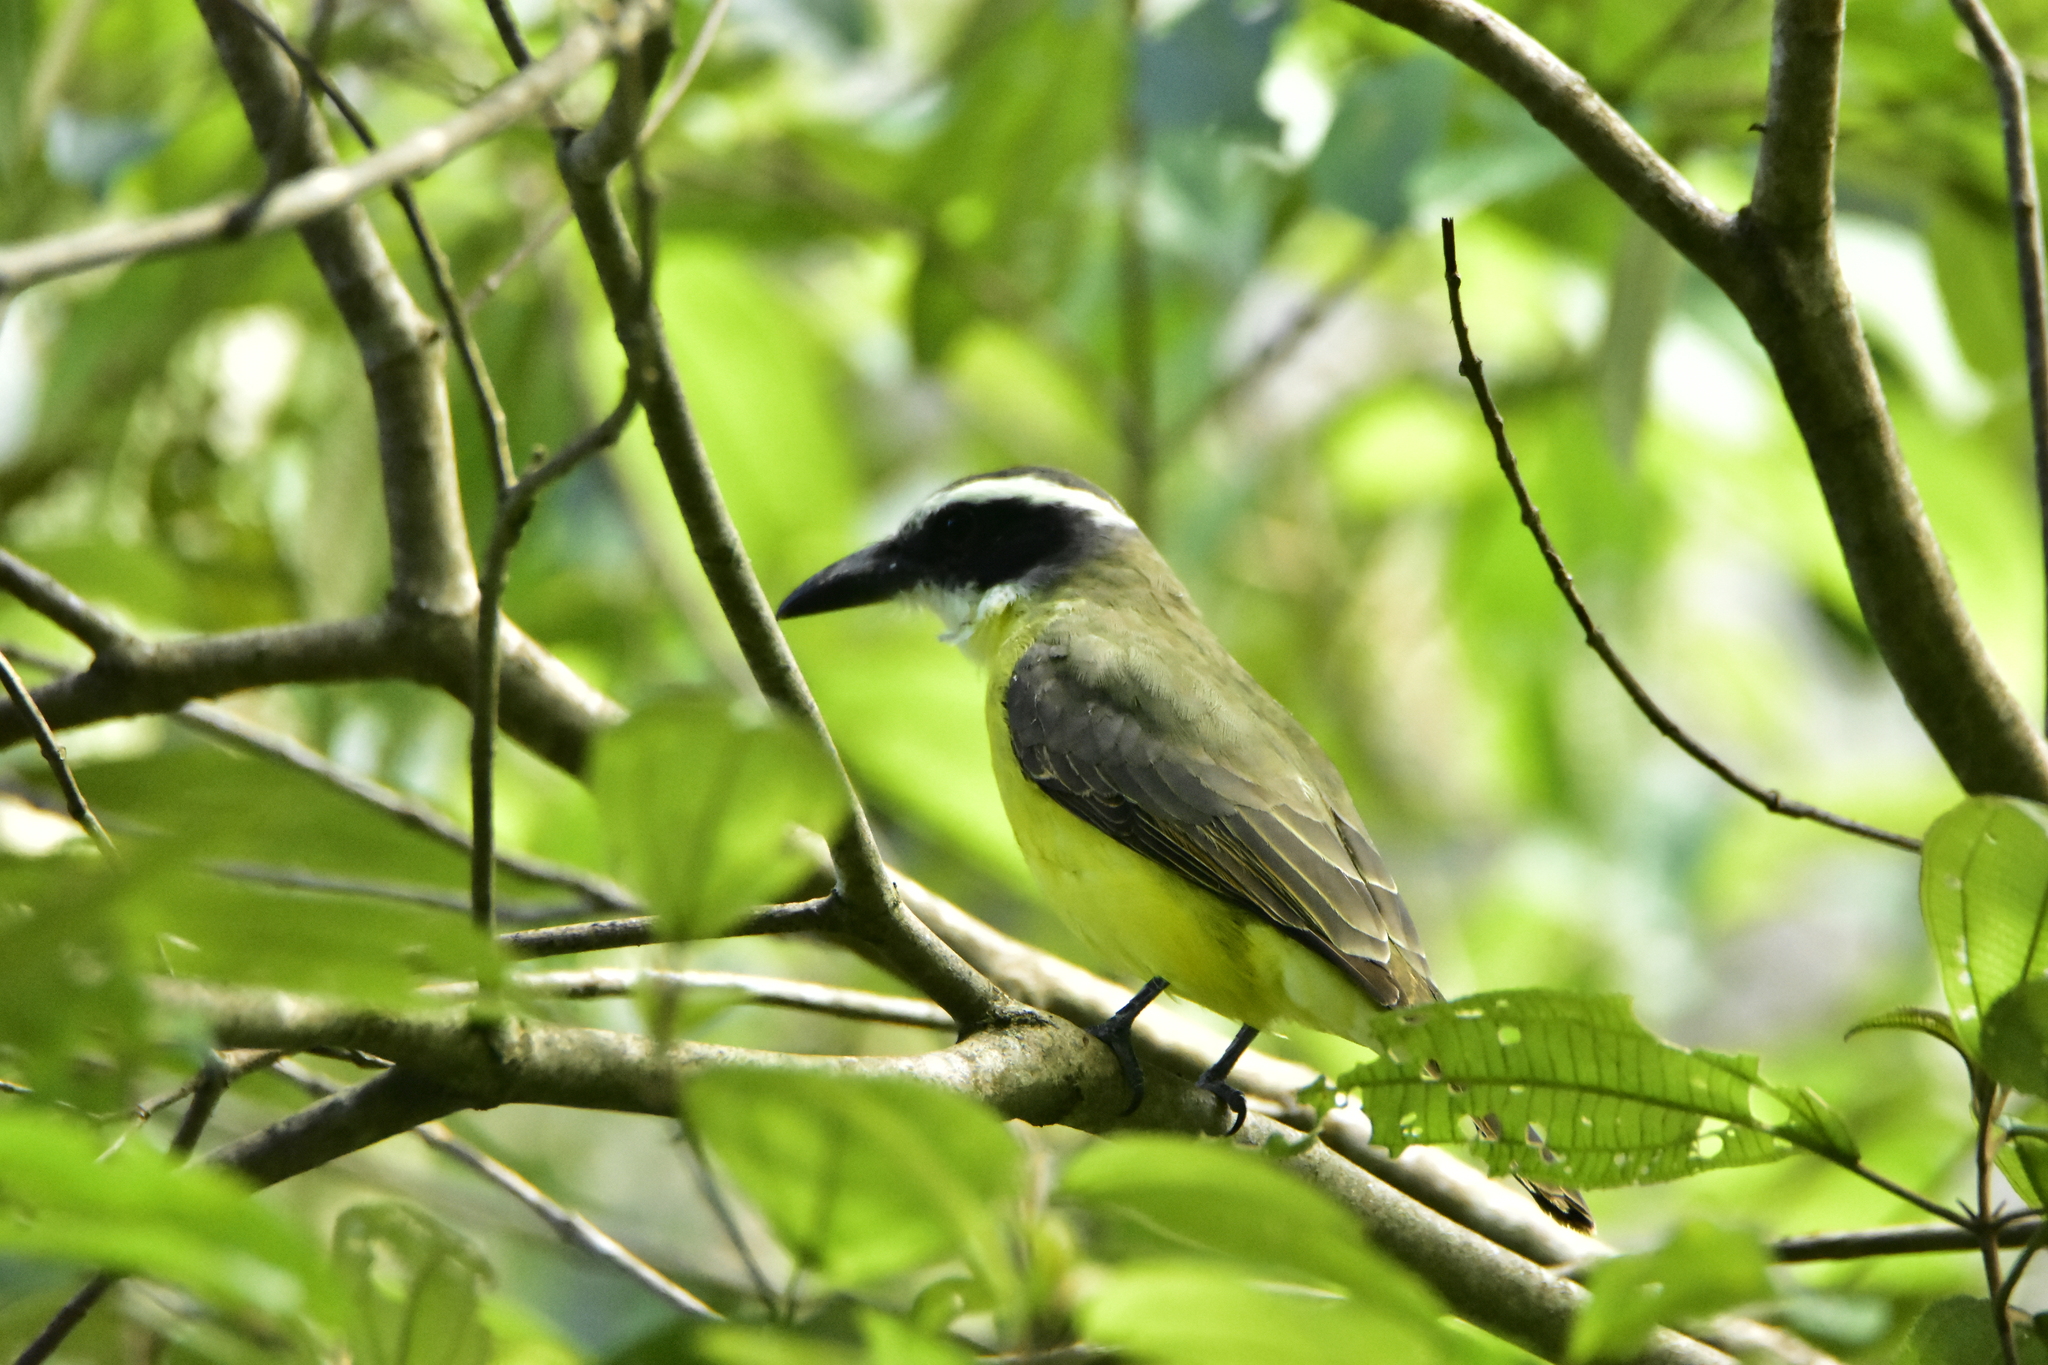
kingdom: Animalia
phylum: Chordata
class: Aves
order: Passeriformes
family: Tyrannidae
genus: Megarynchus
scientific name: Megarynchus pitangua
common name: Boat-billed flycatcher
